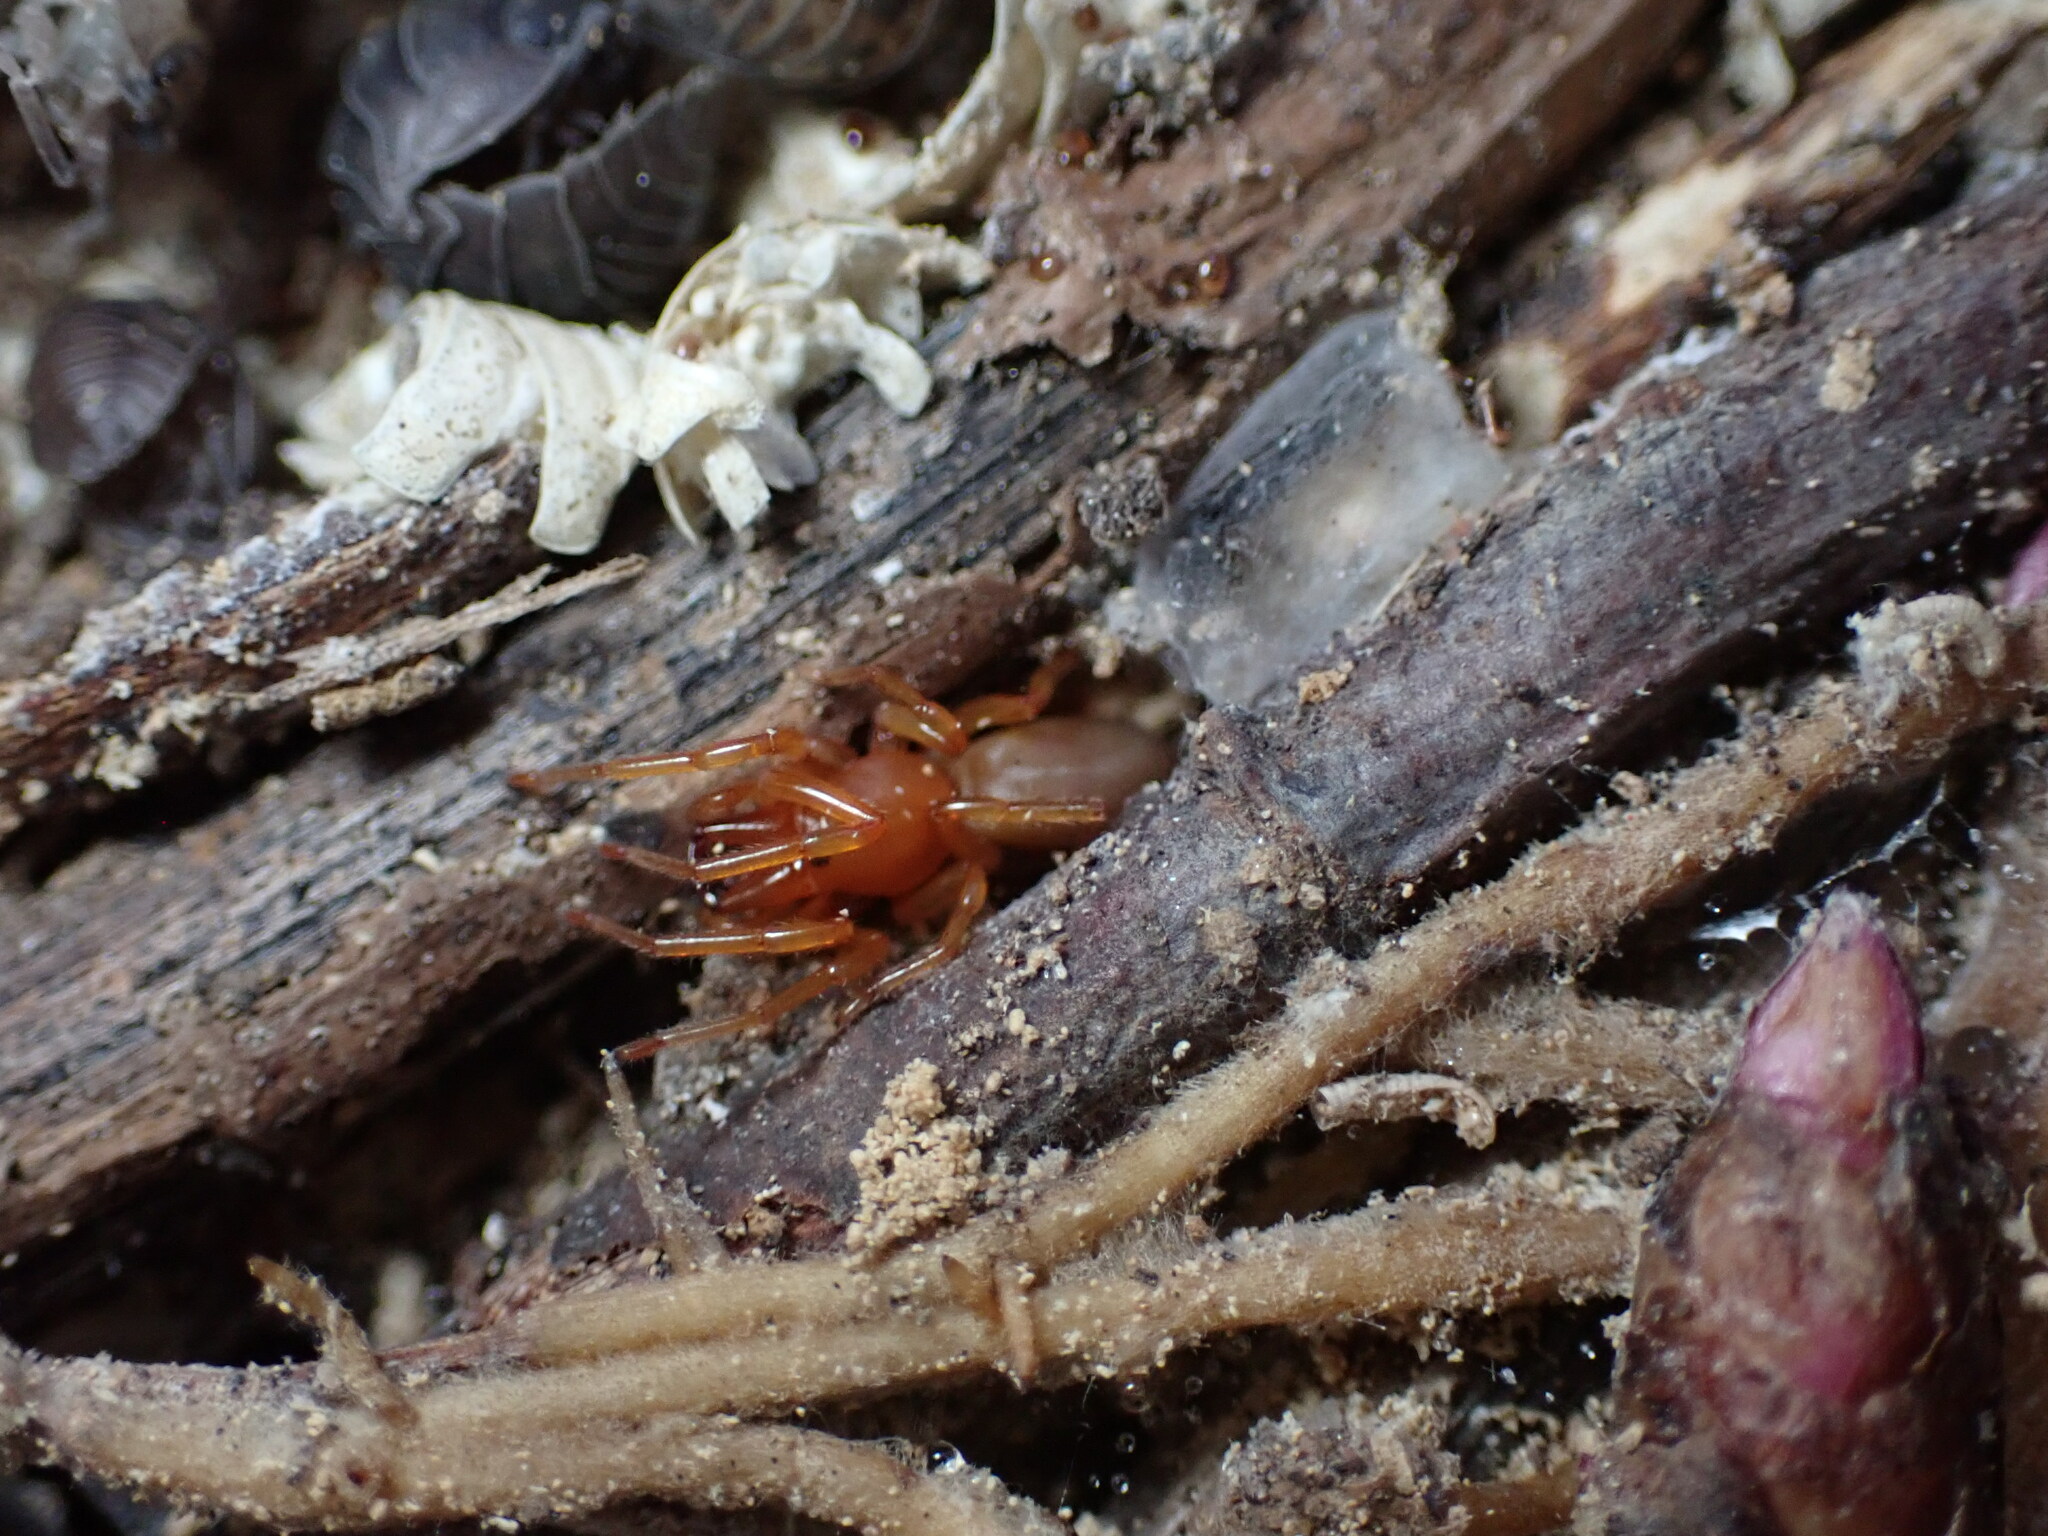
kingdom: Animalia
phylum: Arthropoda
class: Arachnida
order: Araneae
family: Dysderidae
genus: Dysdera
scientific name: Dysdera crocata
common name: Woodlouse spider
